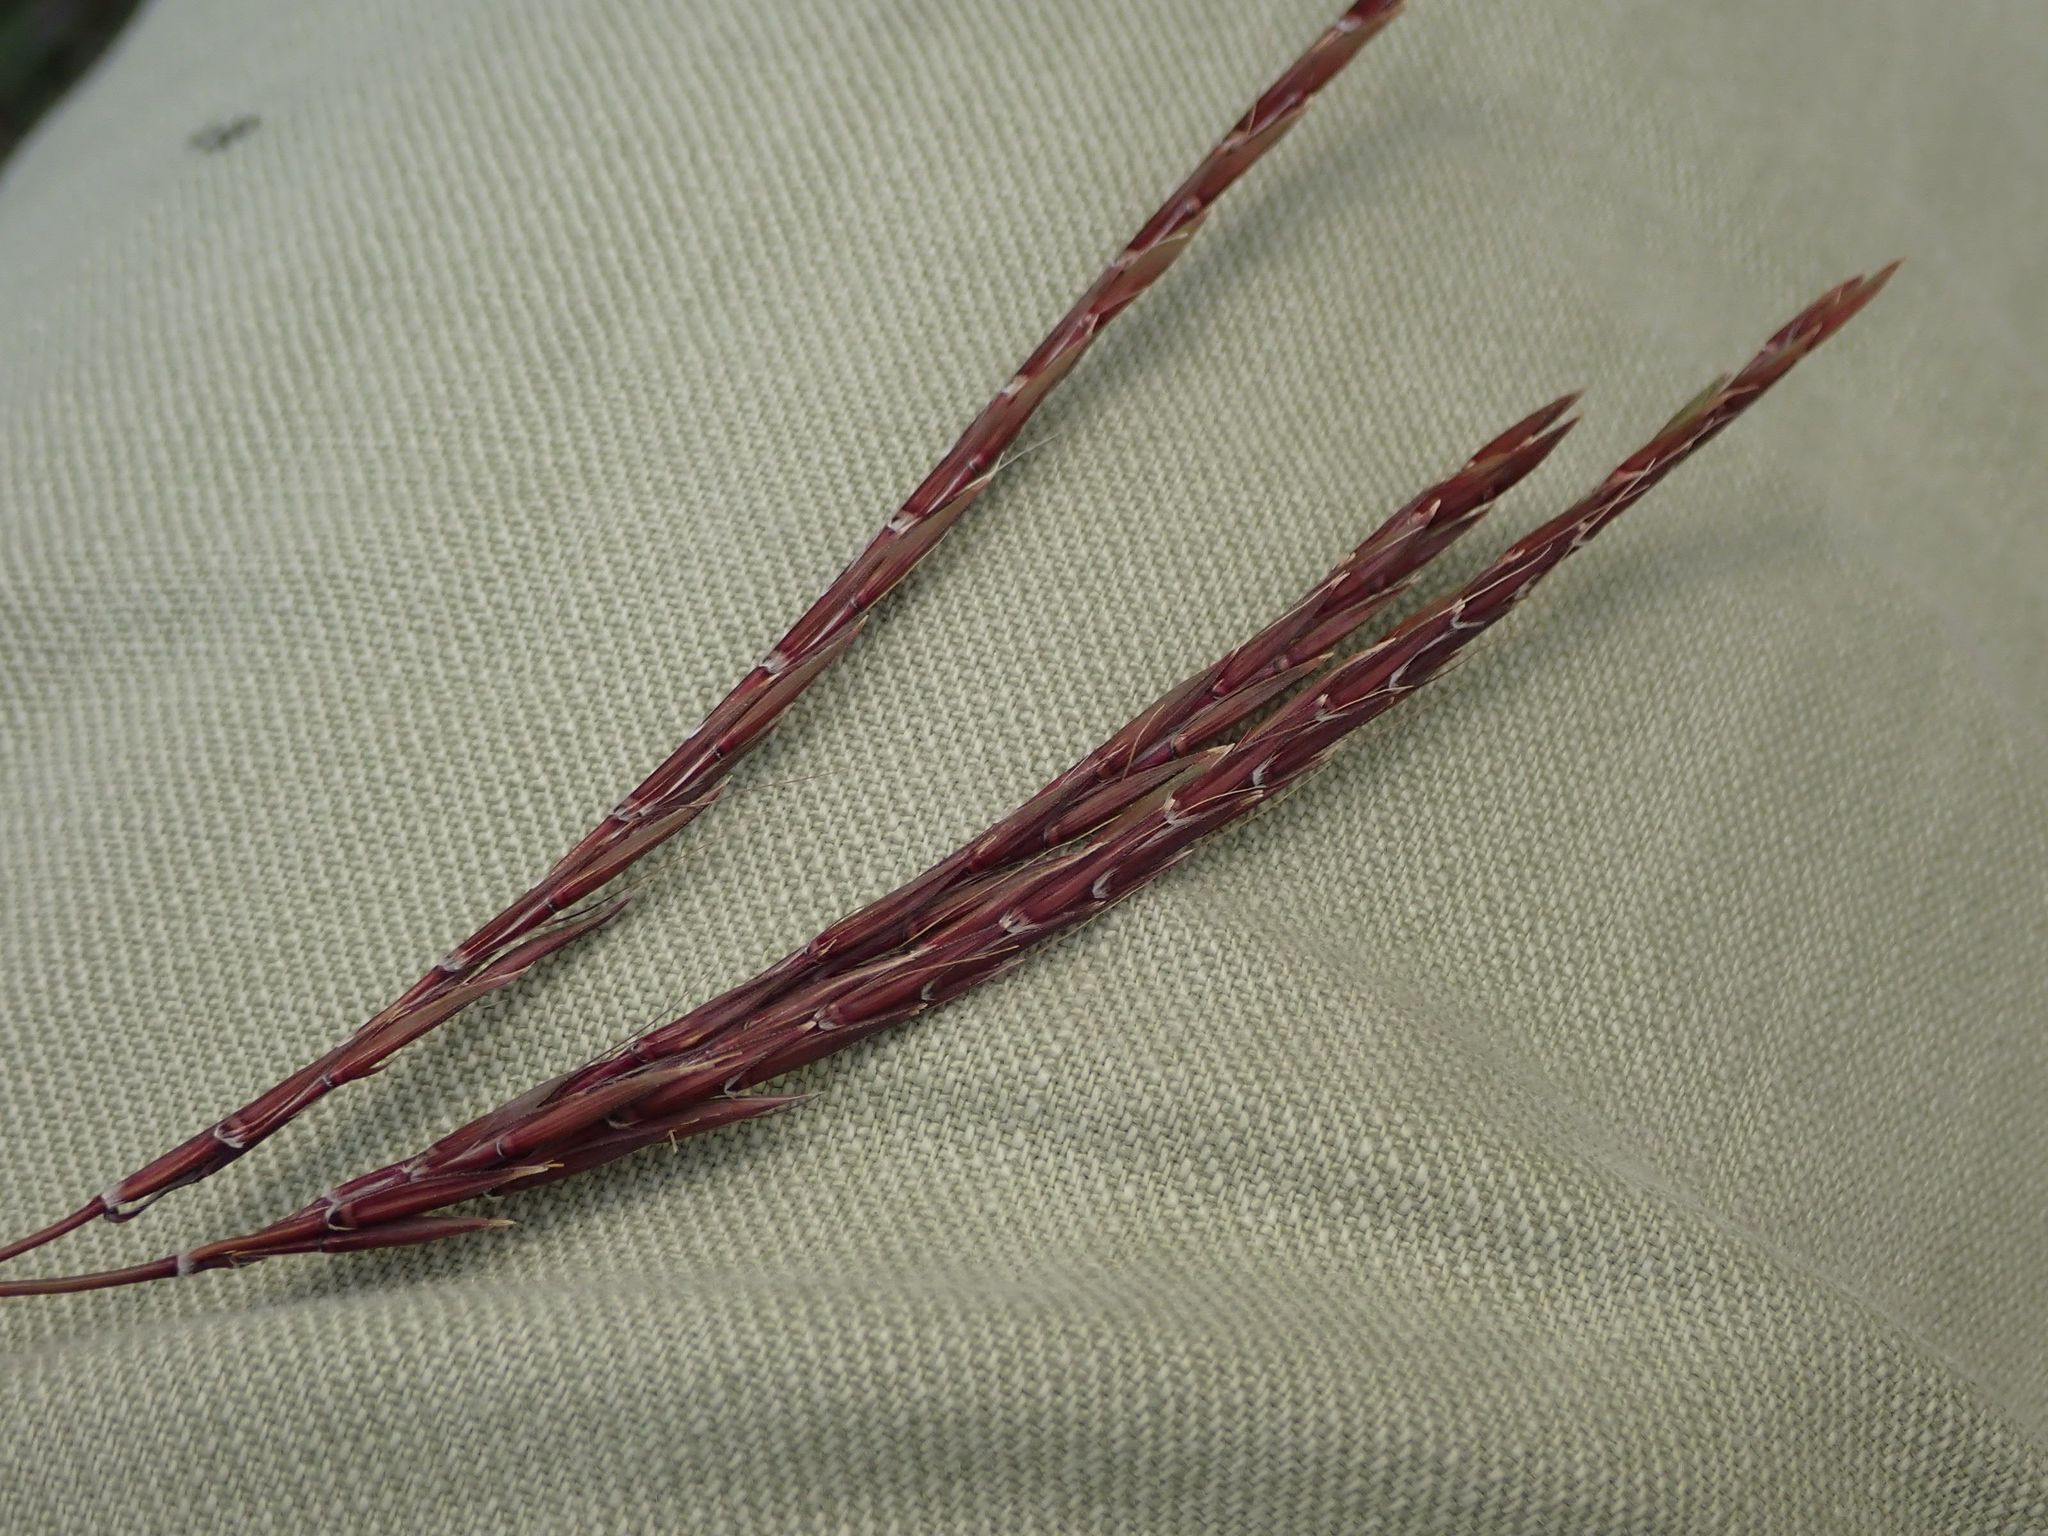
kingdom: Plantae
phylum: Tracheophyta
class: Liliopsida
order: Poales
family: Poaceae
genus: Andropogon
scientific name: Andropogon gerardi
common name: Big bluestem
